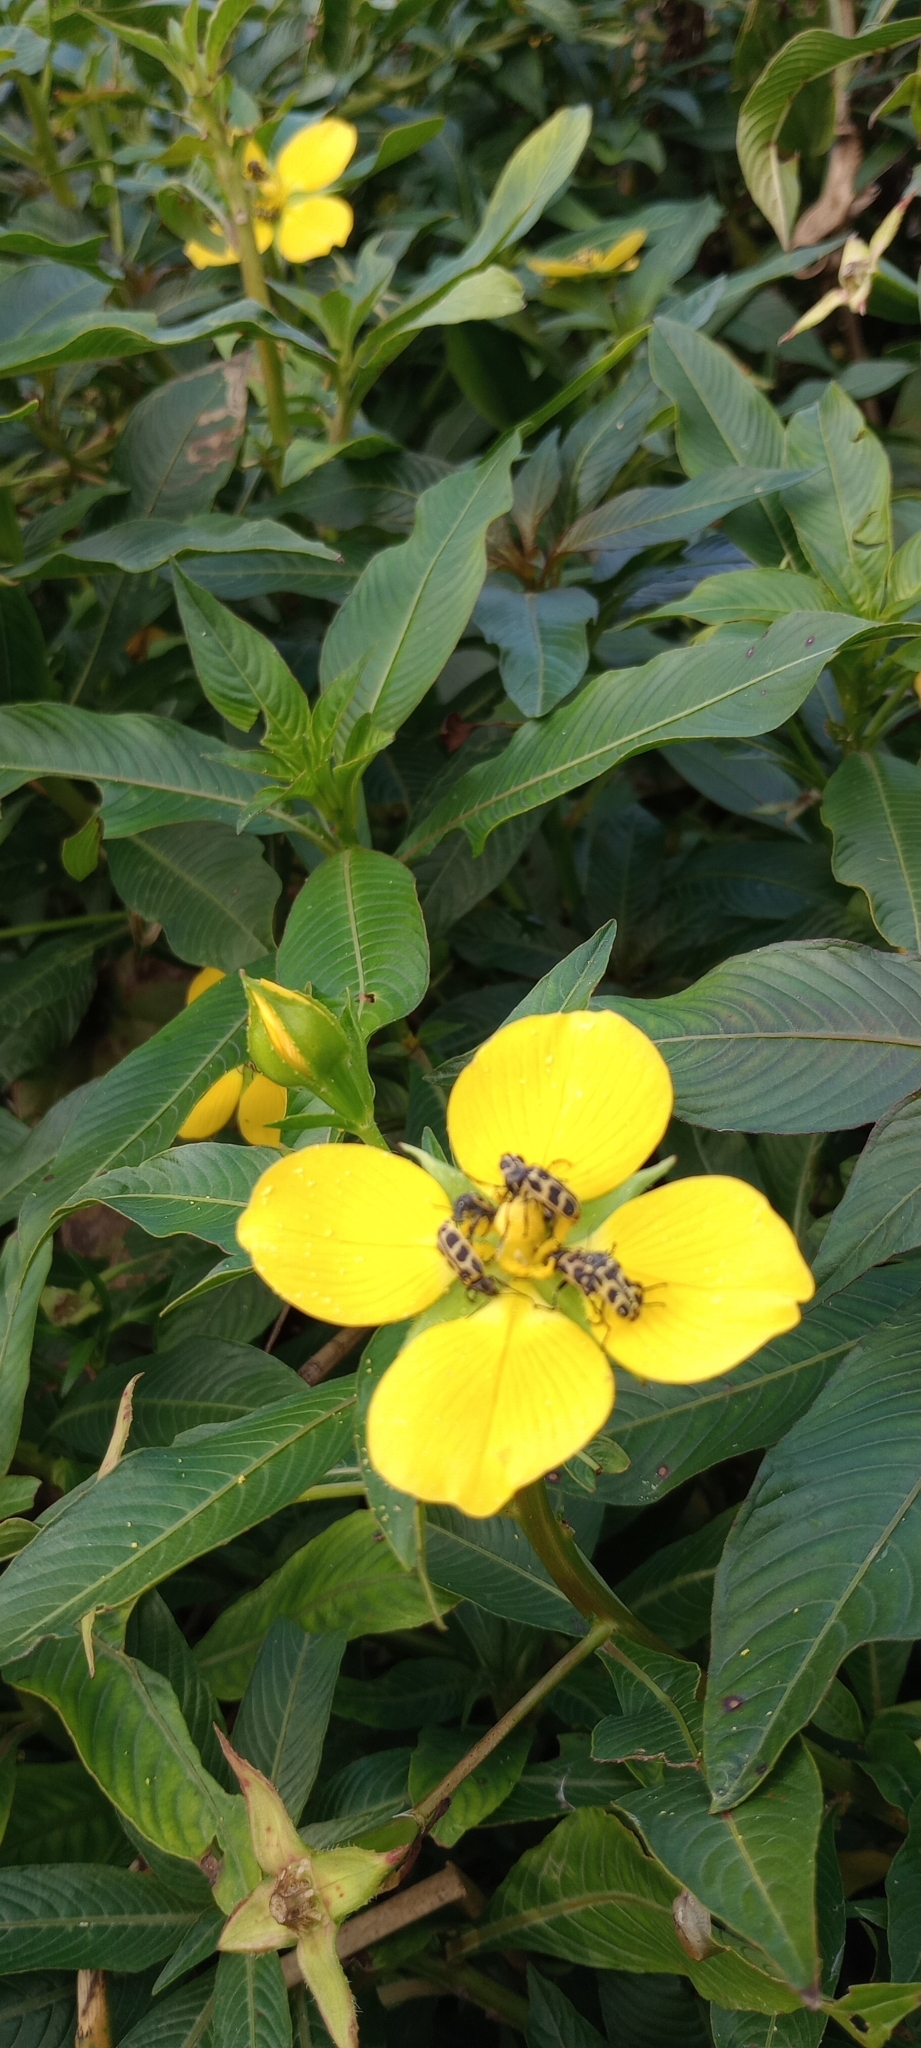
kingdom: Plantae
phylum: Tracheophyta
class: Magnoliopsida
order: Myrtales
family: Onagraceae
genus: Ludwigia
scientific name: Ludwigia elegans
